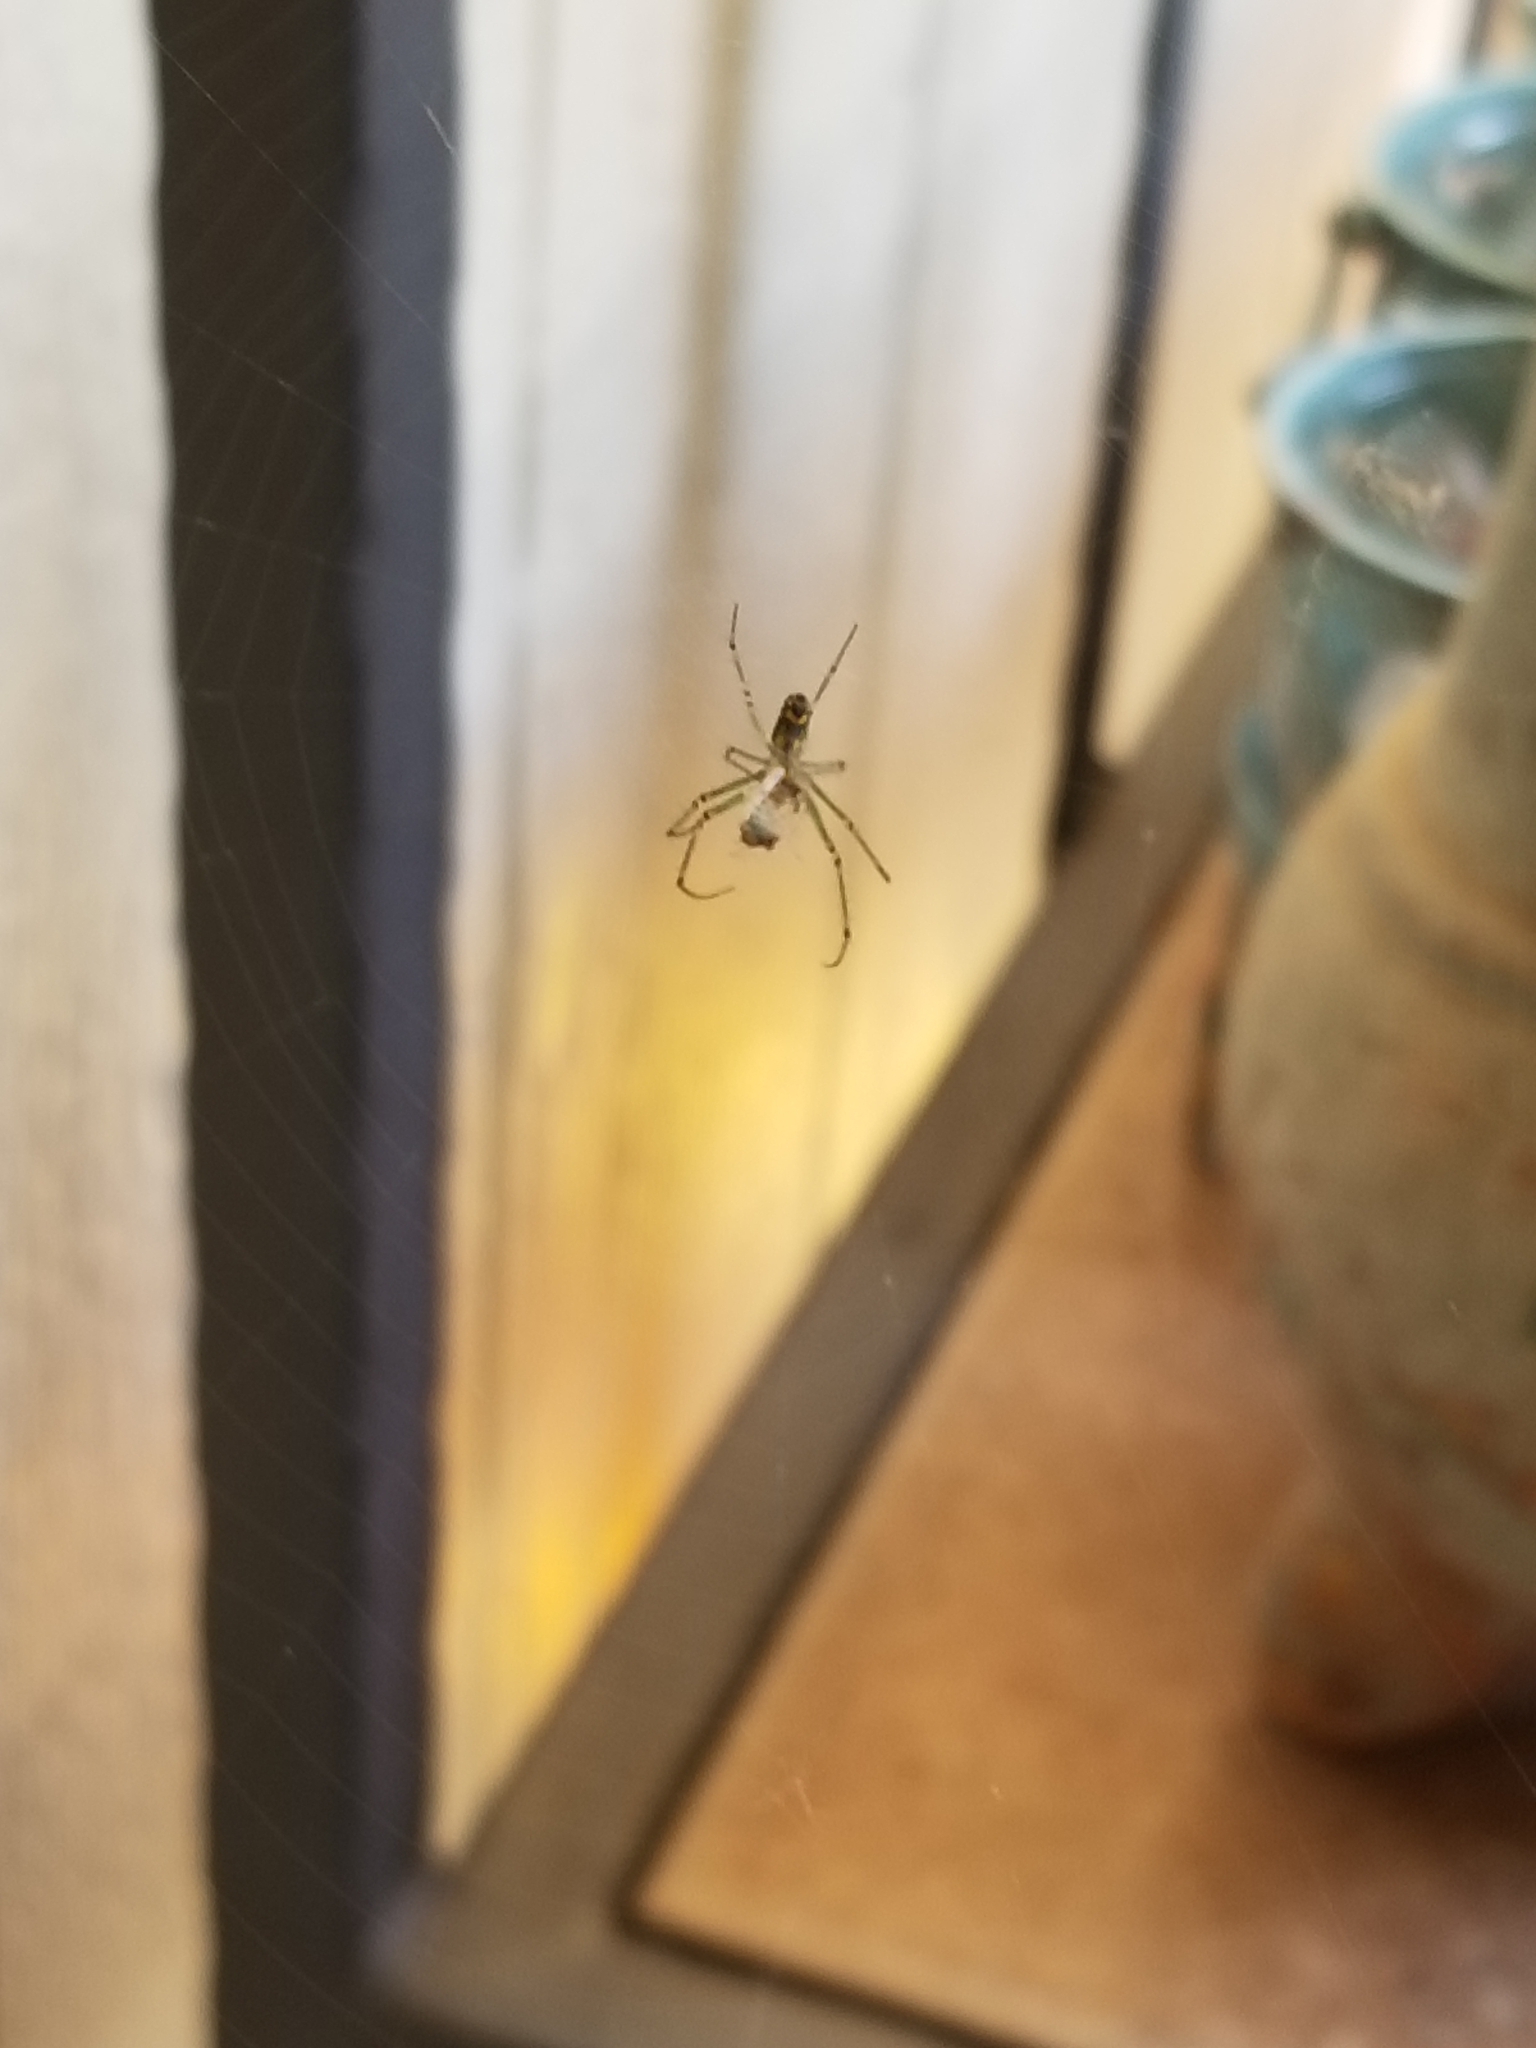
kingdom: Animalia
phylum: Arthropoda
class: Arachnida
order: Araneae
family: Tetragnathidae
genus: Leucauge
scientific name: Leucauge venusta
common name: Longjawed orb weavers
